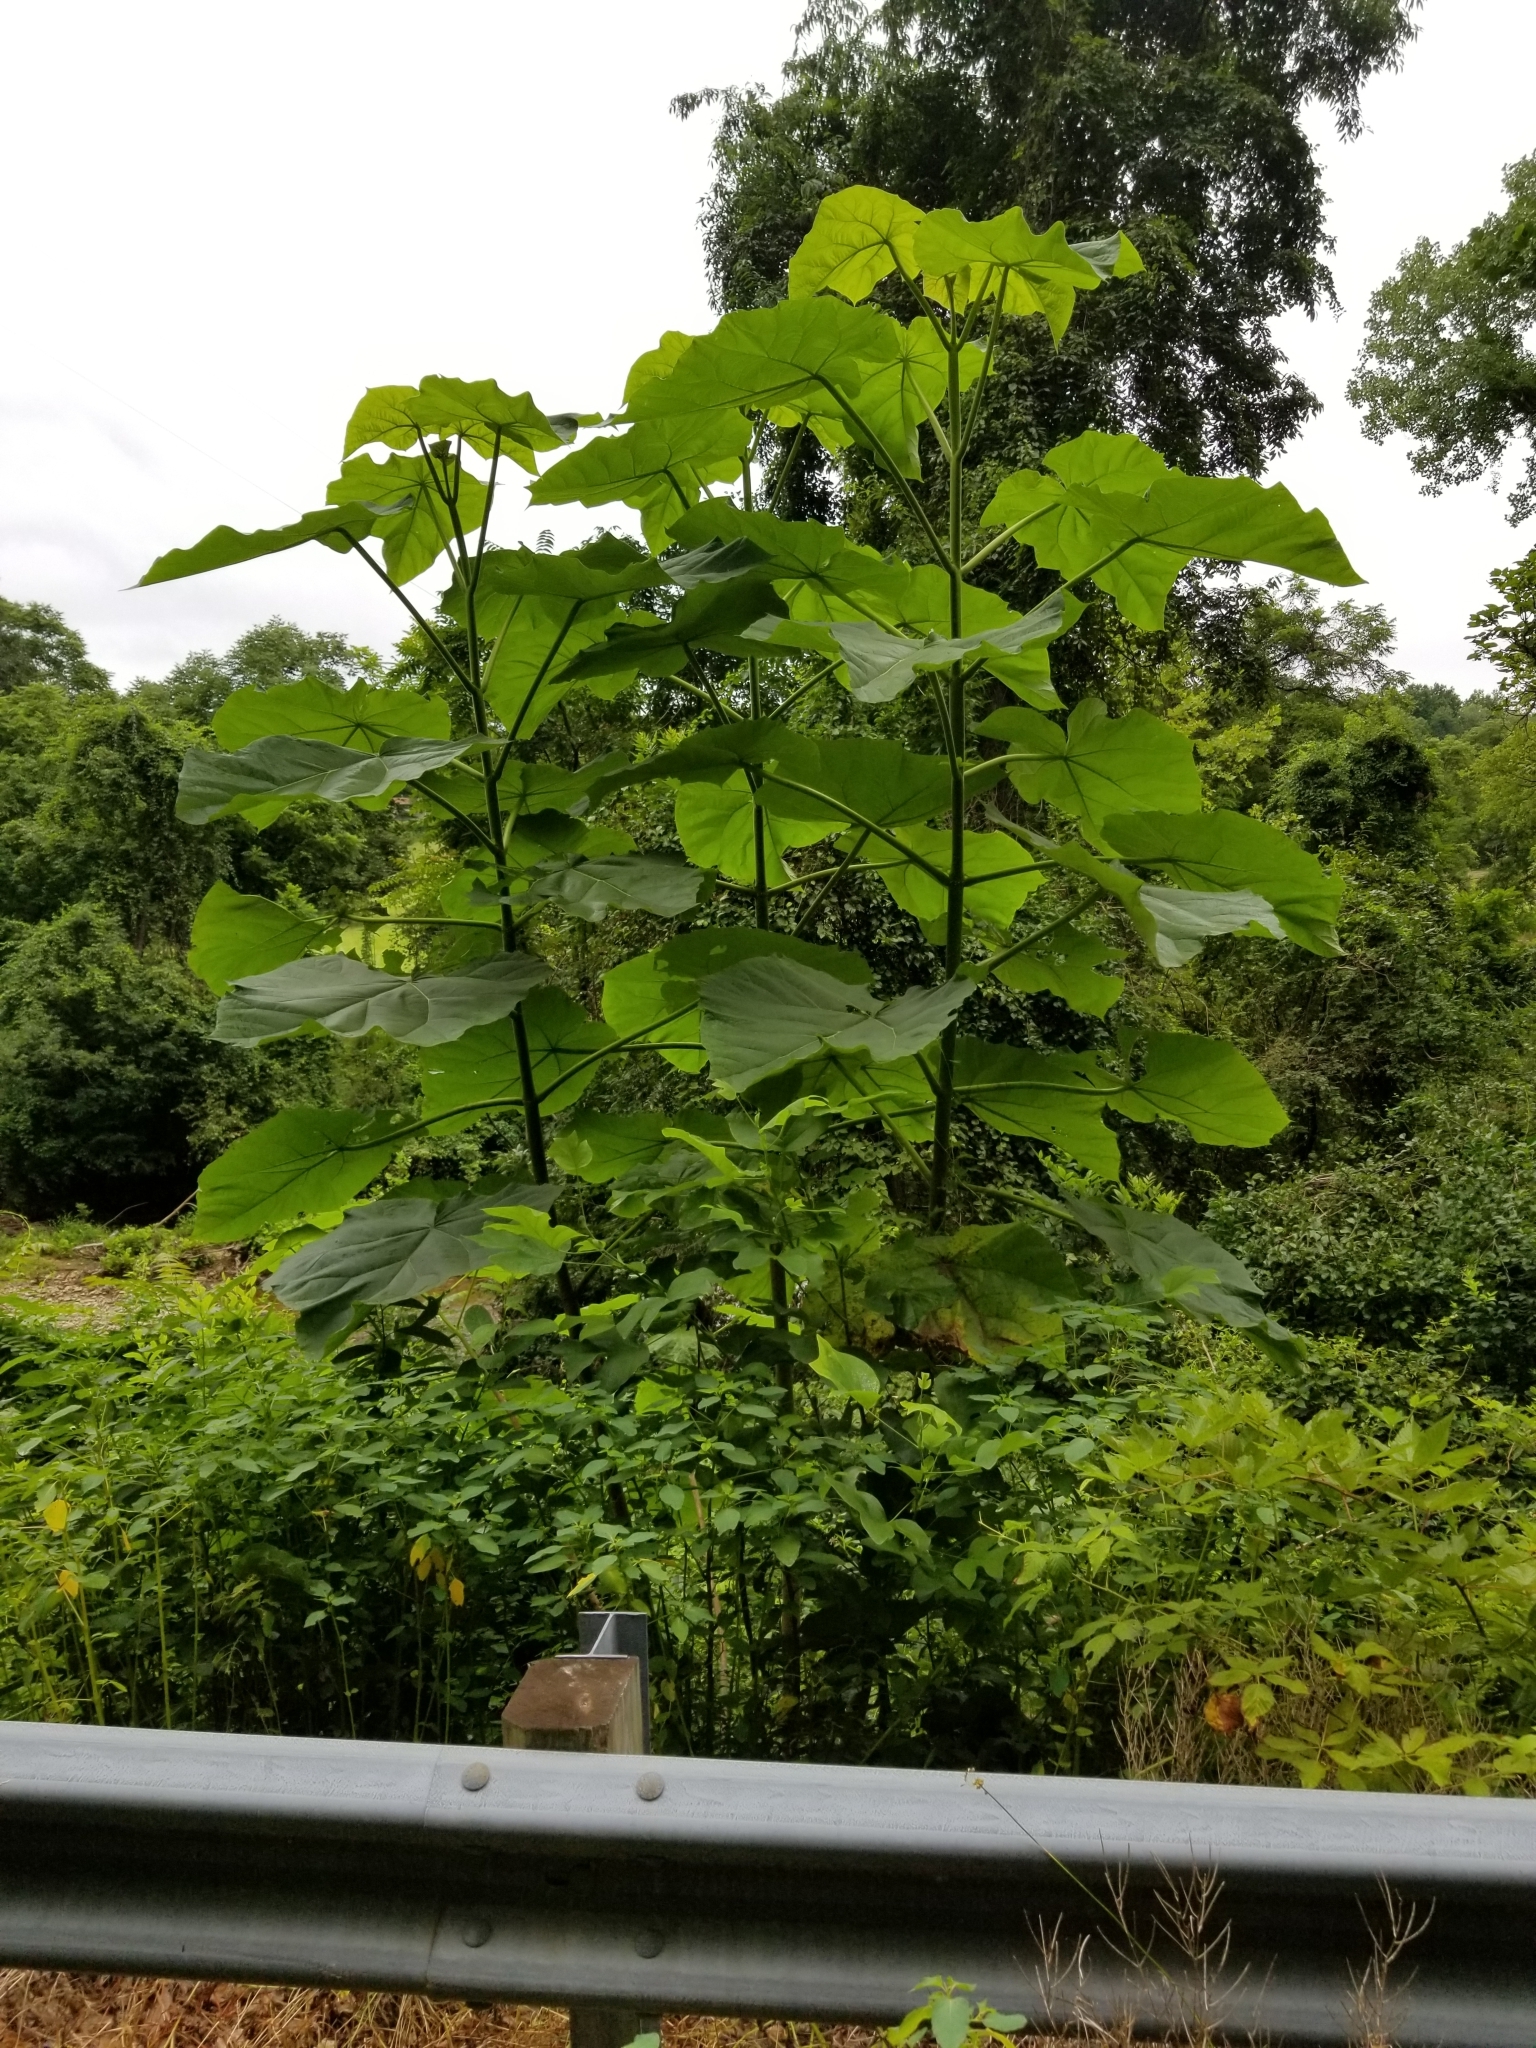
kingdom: Plantae
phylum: Tracheophyta
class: Magnoliopsida
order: Lamiales
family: Paulowniaceae
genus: Paulownia
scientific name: Paulownia tomentosa
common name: Foxglove-tree
